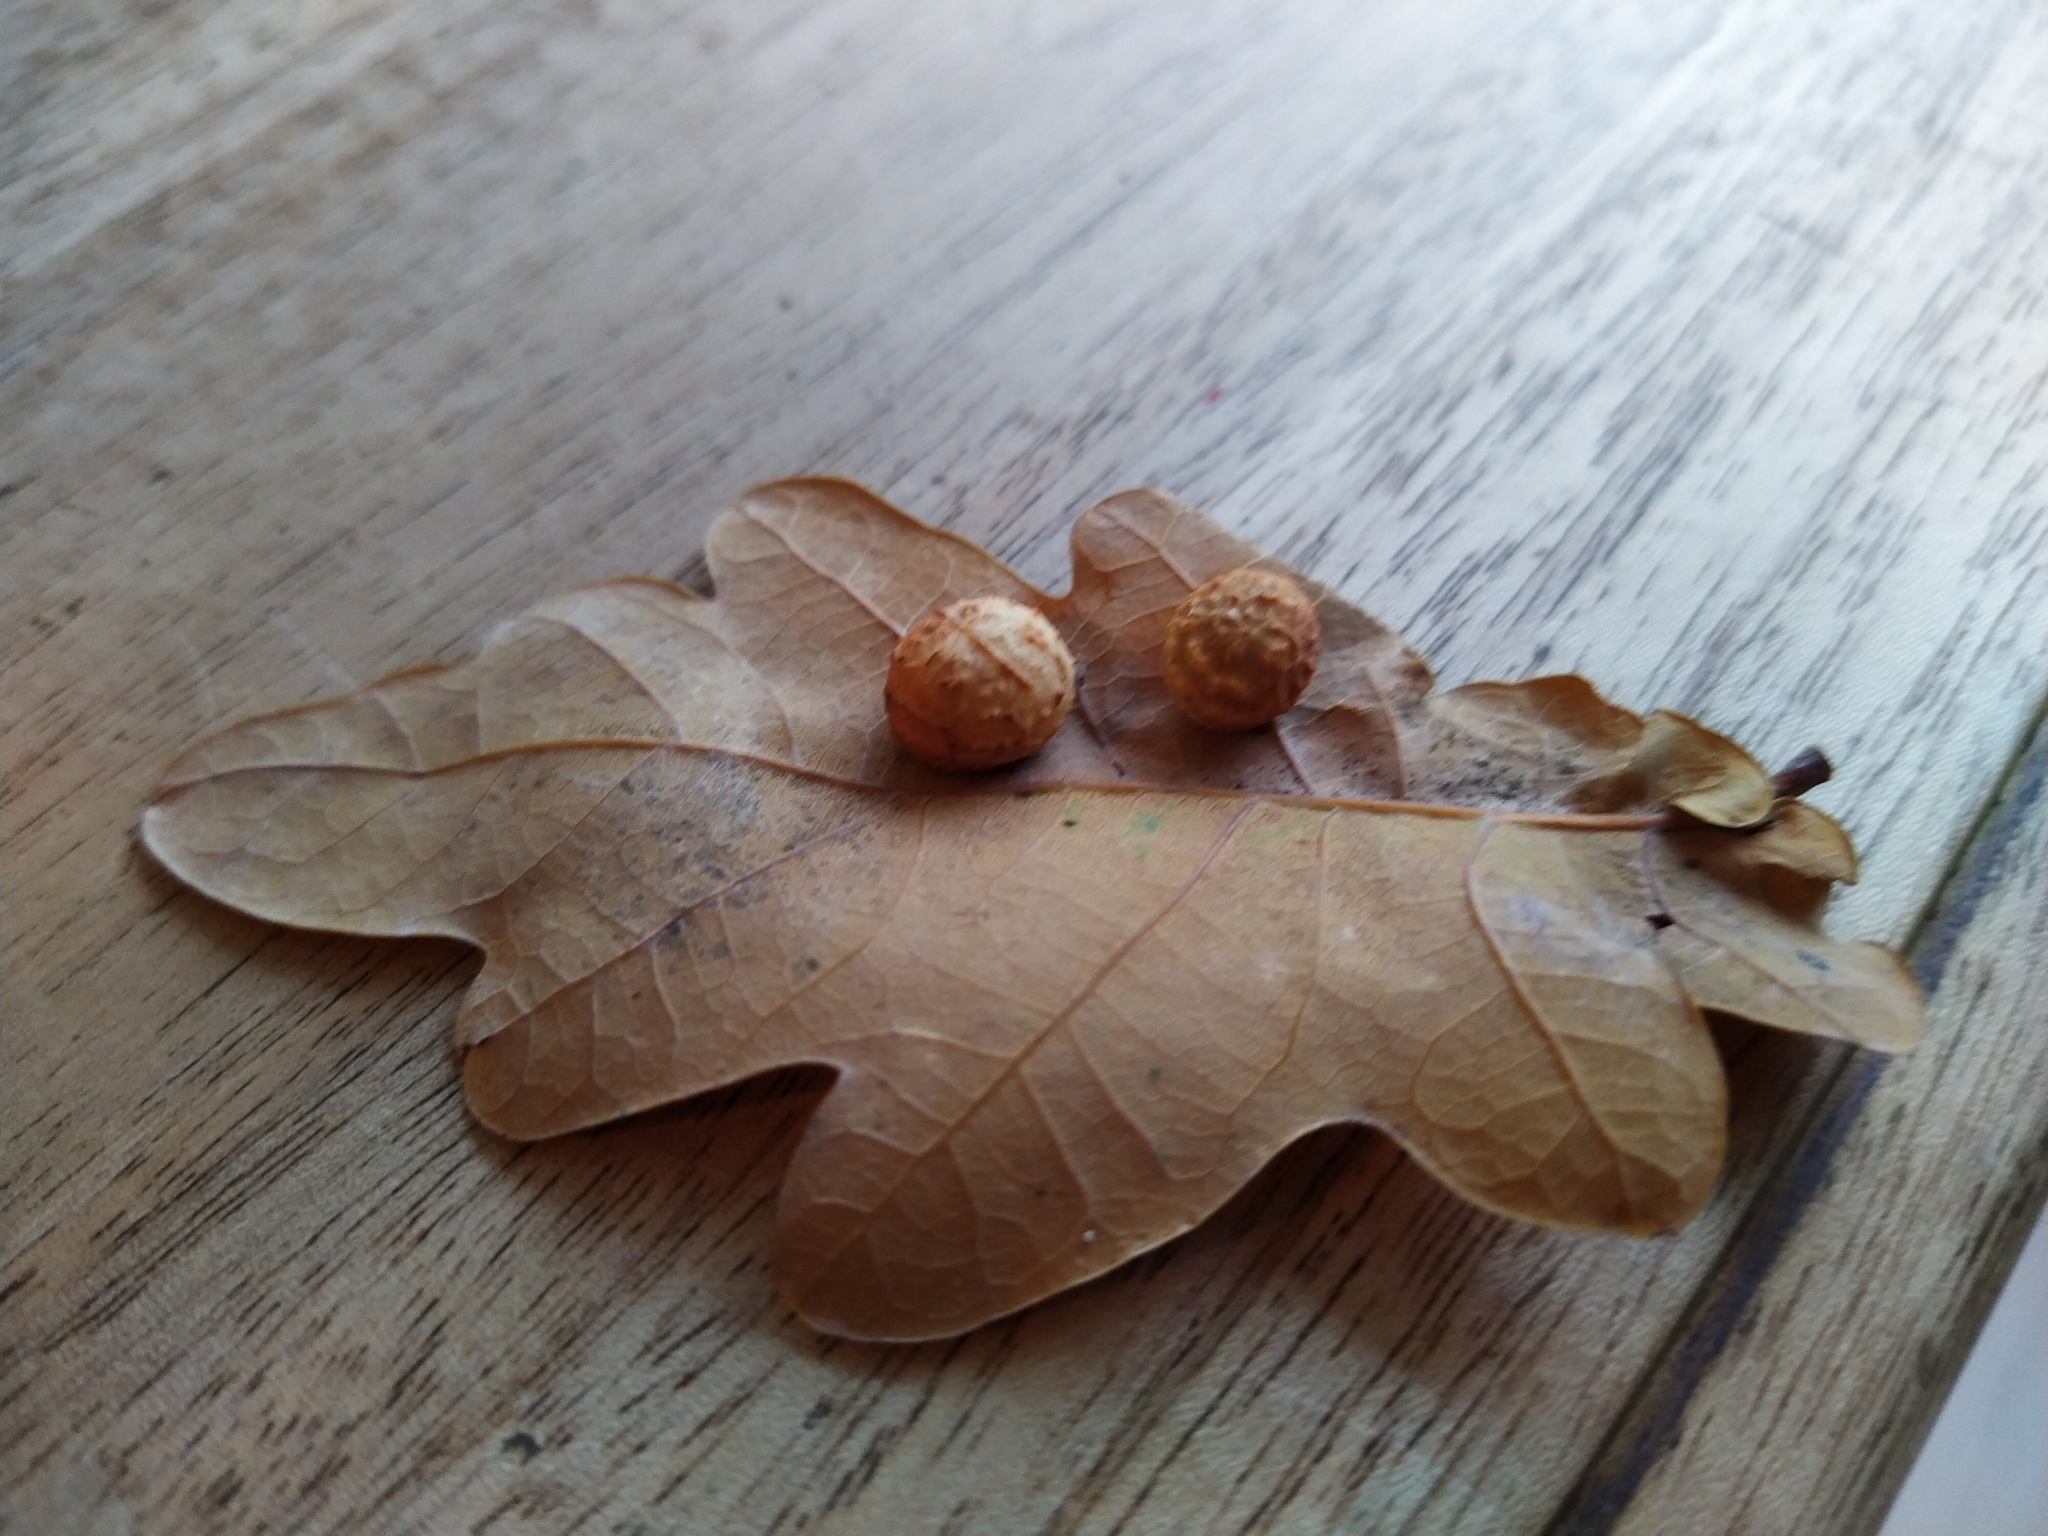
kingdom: Animalia
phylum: Arthropoda
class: Insecta
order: Hymenoptera
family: Cynipidae
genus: Cynips
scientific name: Cynips longiventris
